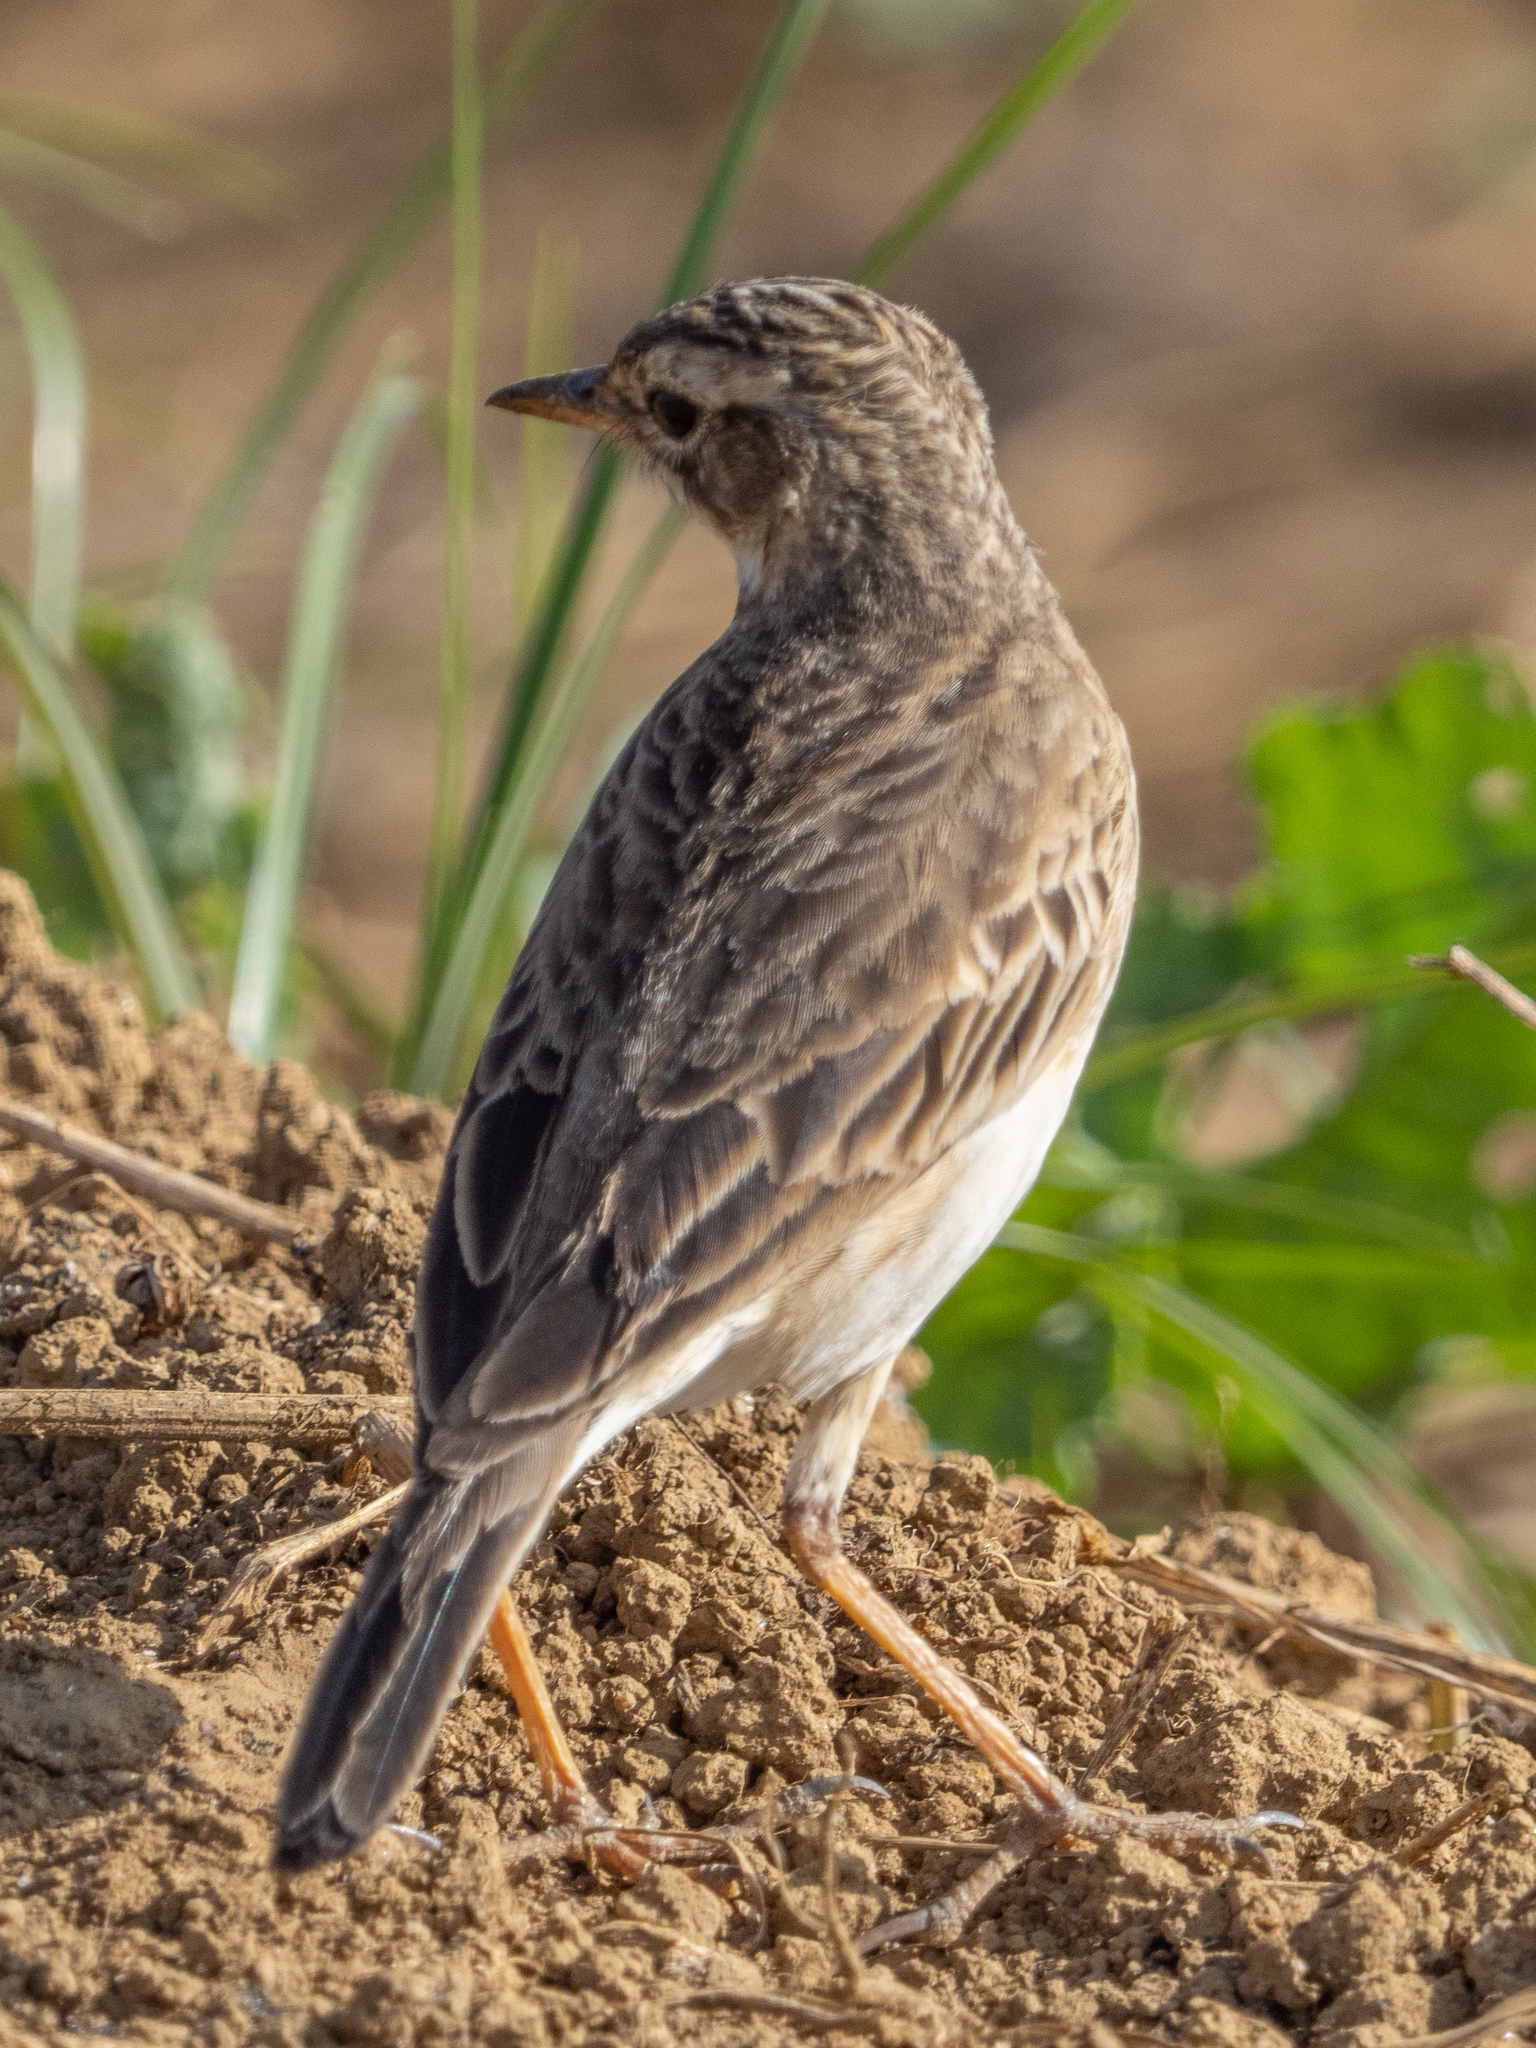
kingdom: Animalia
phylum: Chordata
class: Aves
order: Passeriformes
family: Motacillidae
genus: Anthus
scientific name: Anthus rufulus
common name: Paddyfield pipit
